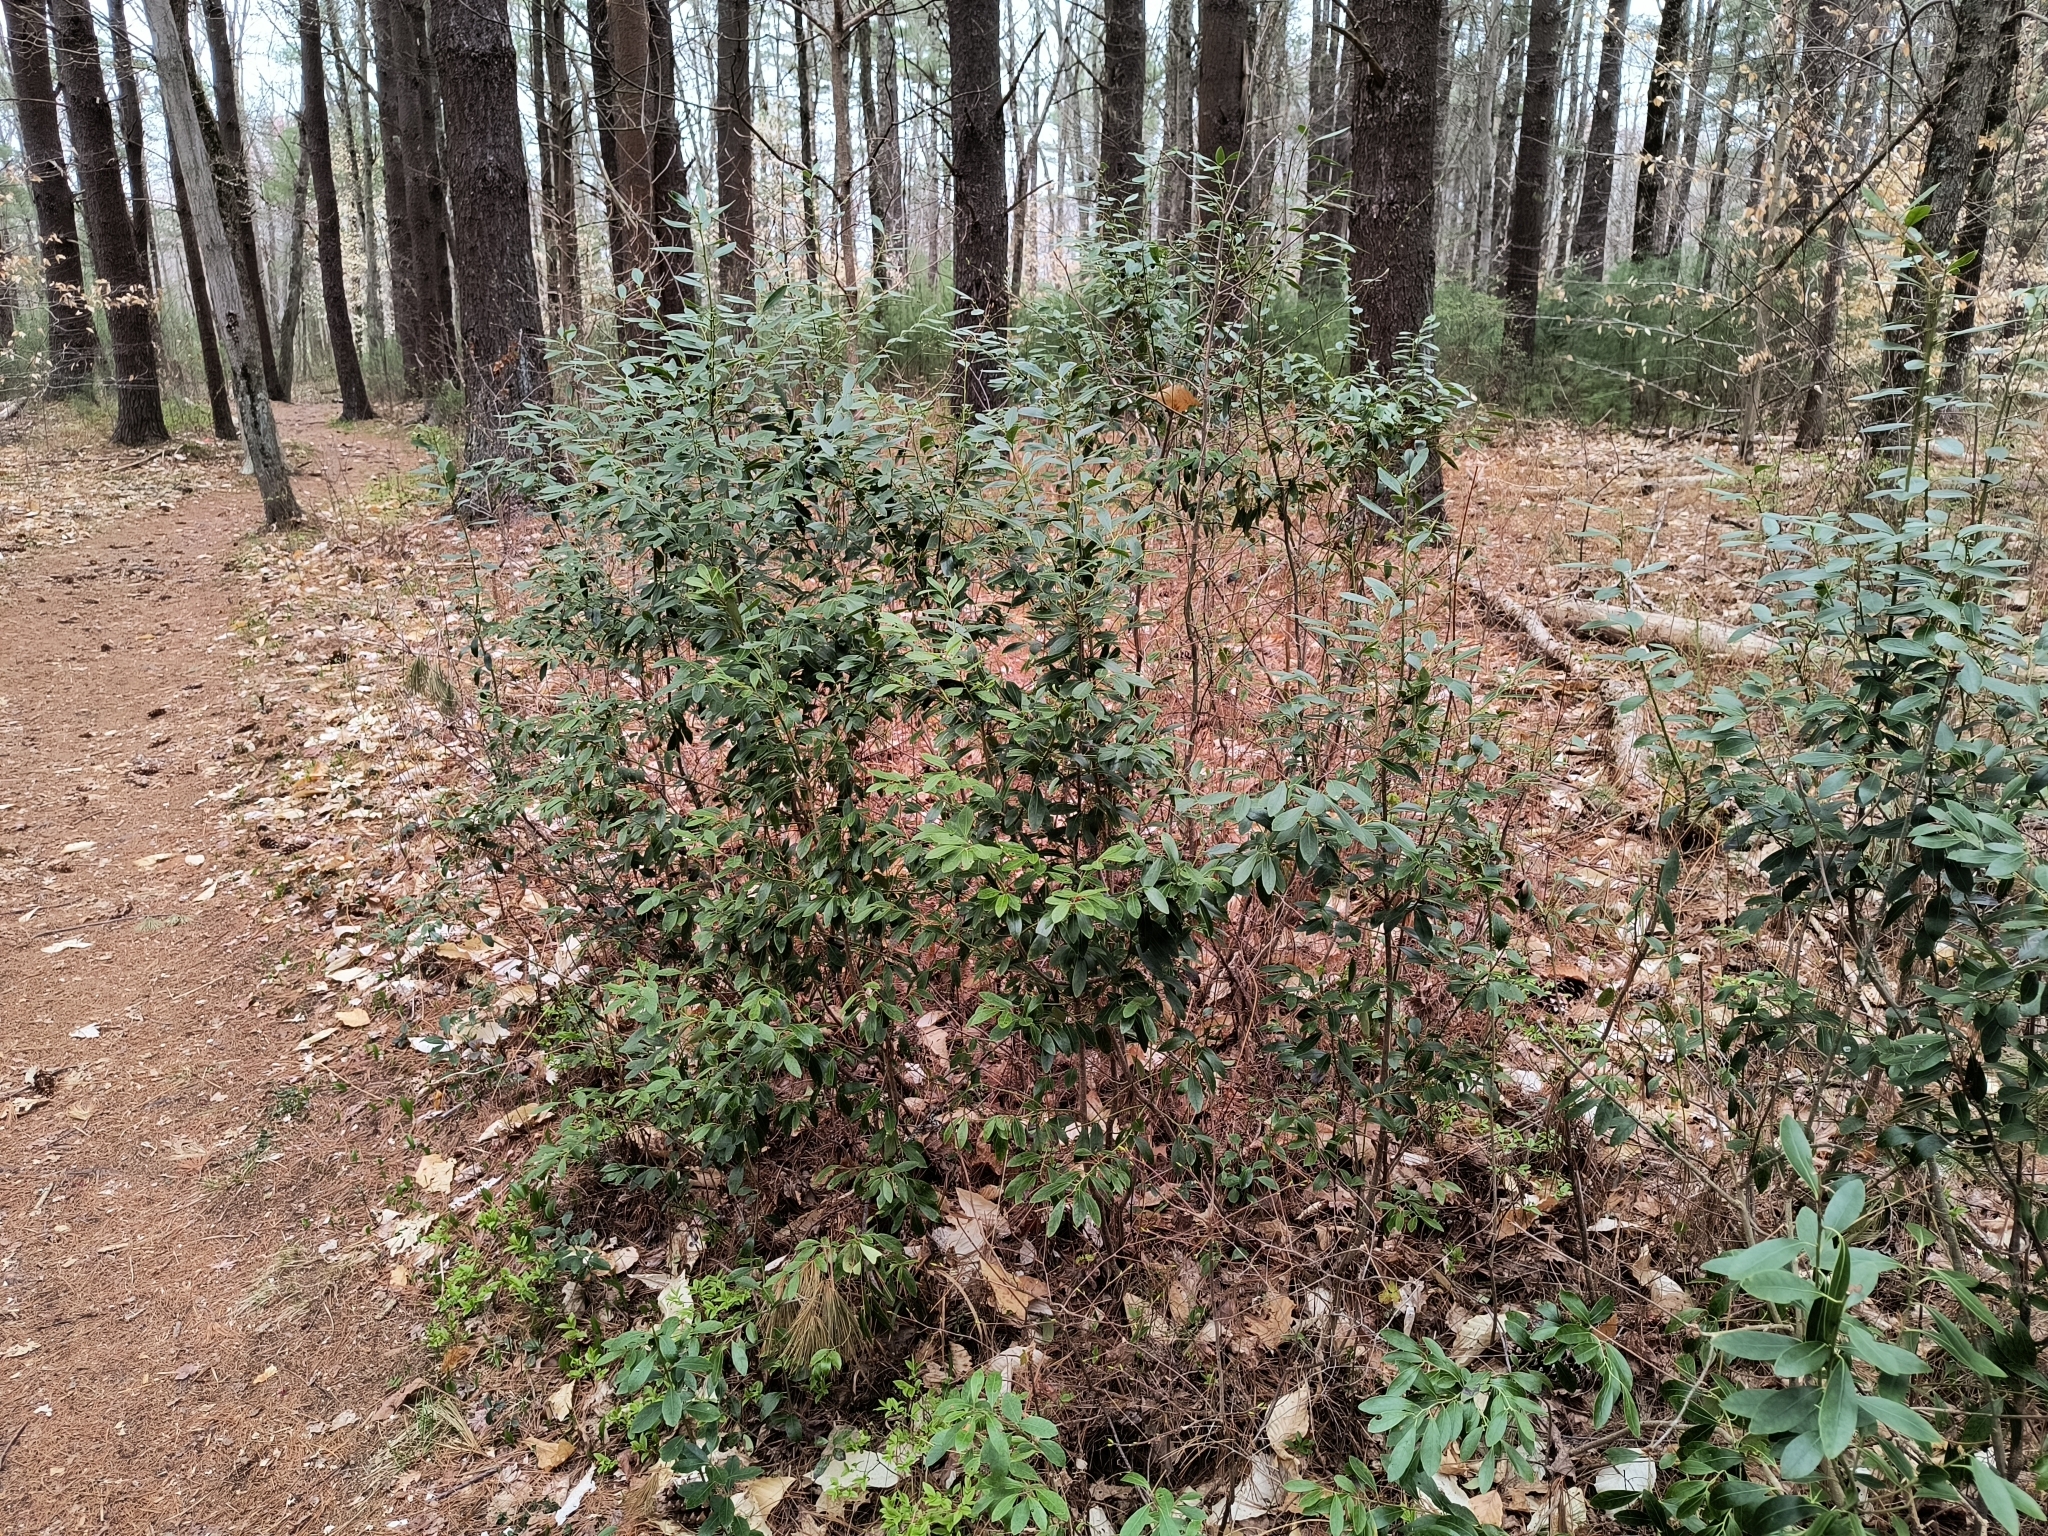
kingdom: Plantae
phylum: Tracheophyta
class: Magnoliopsida
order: Aquifoliales
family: Aquifoliaceae
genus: Ilex
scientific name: Ilex glabra
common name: Bitter gallberry
